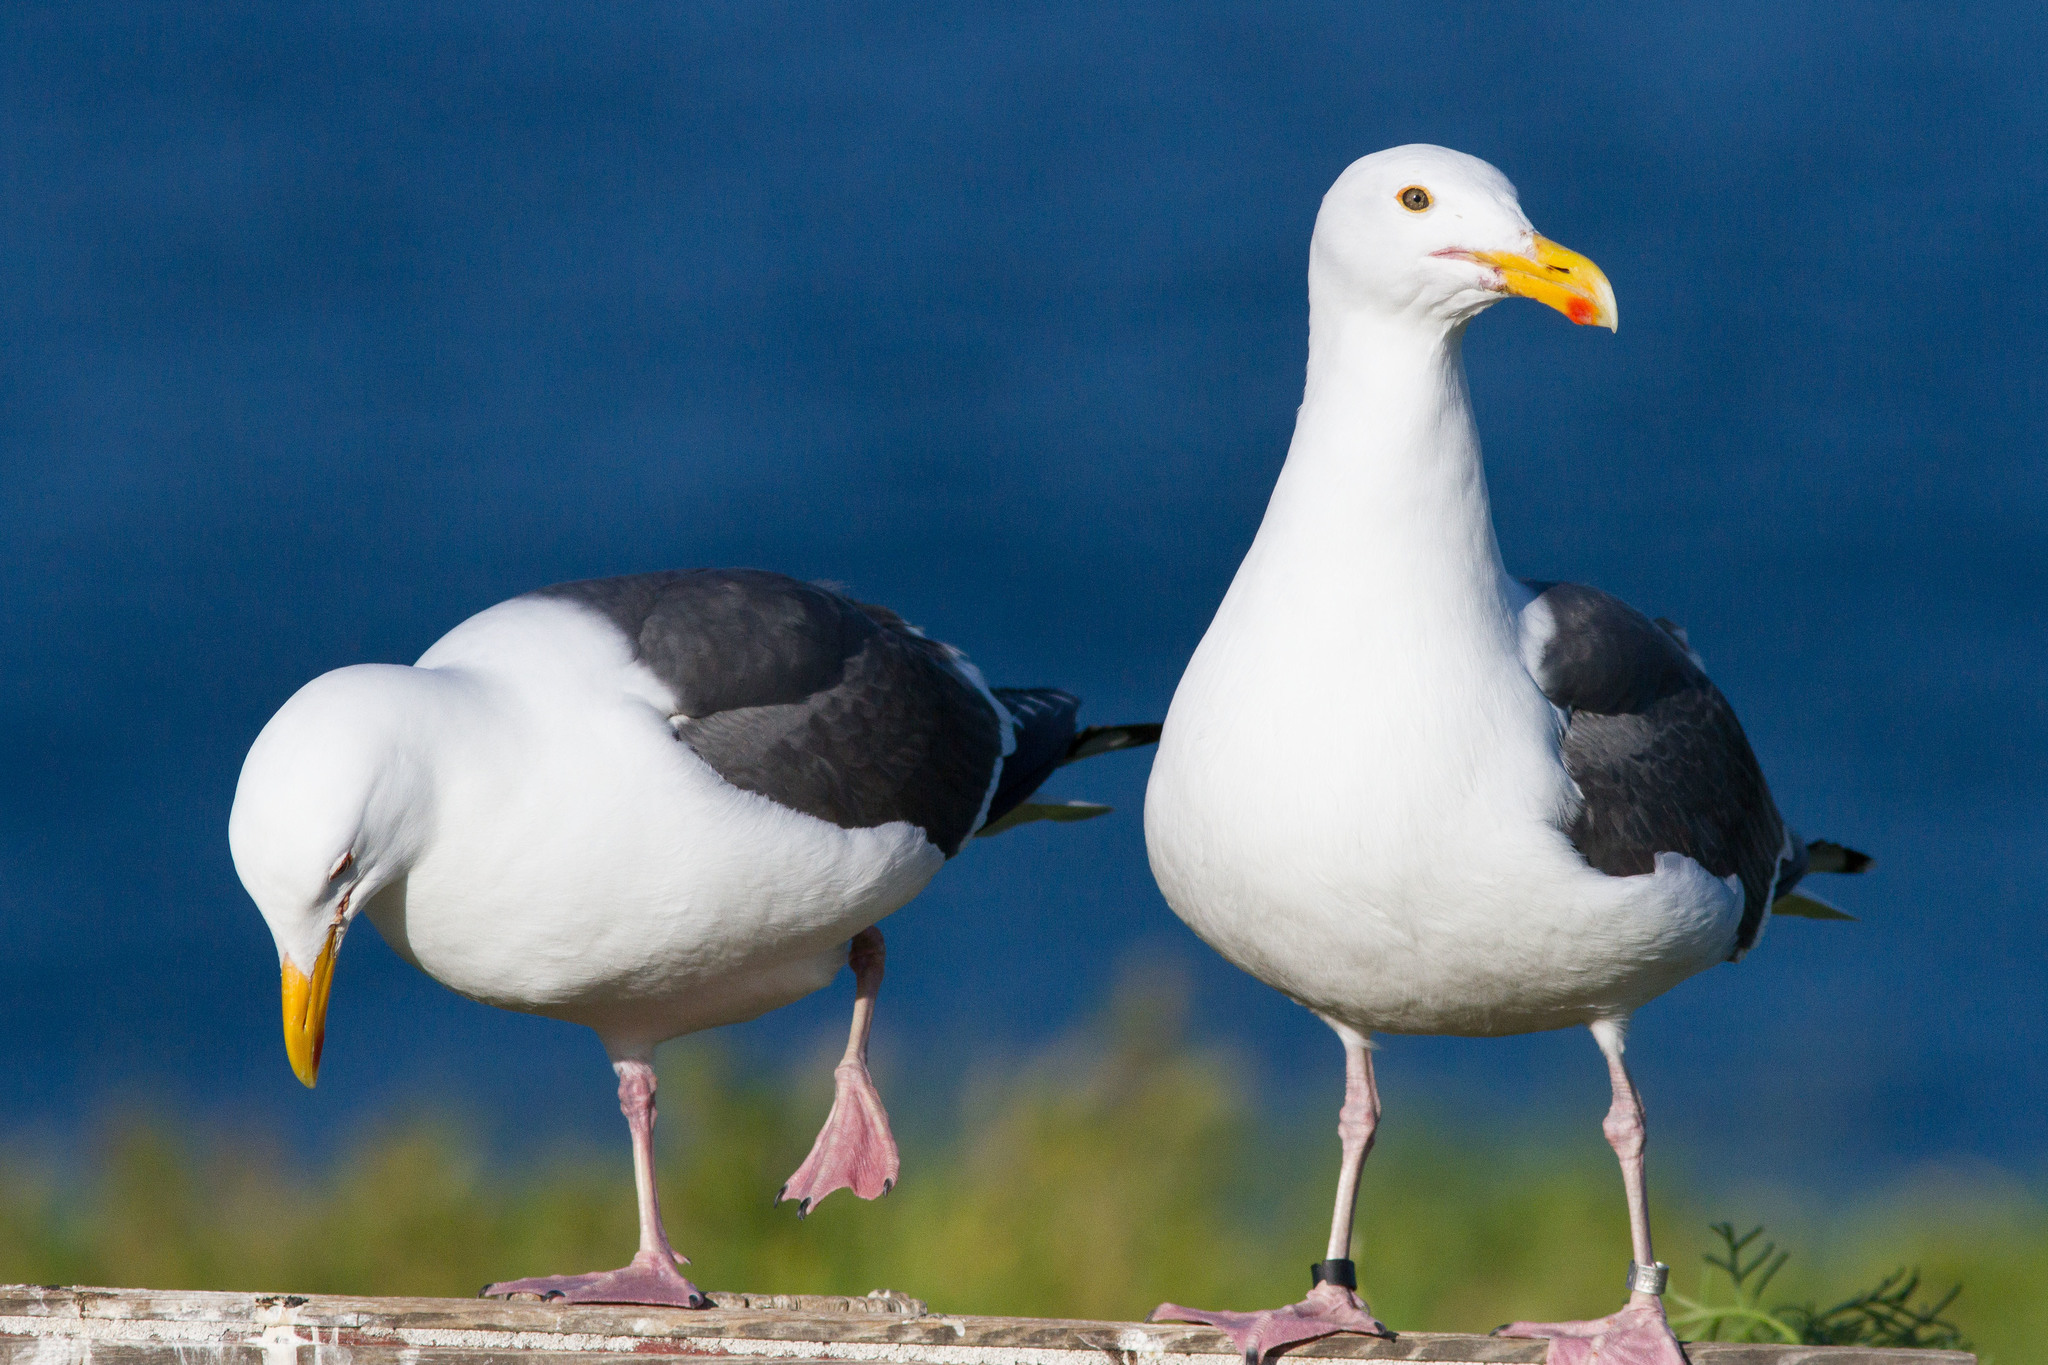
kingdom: Animalia
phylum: Chordata
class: Aves
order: Charadriiformes
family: Laridae
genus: Larus
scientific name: Larus occidentalis
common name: Western gull
